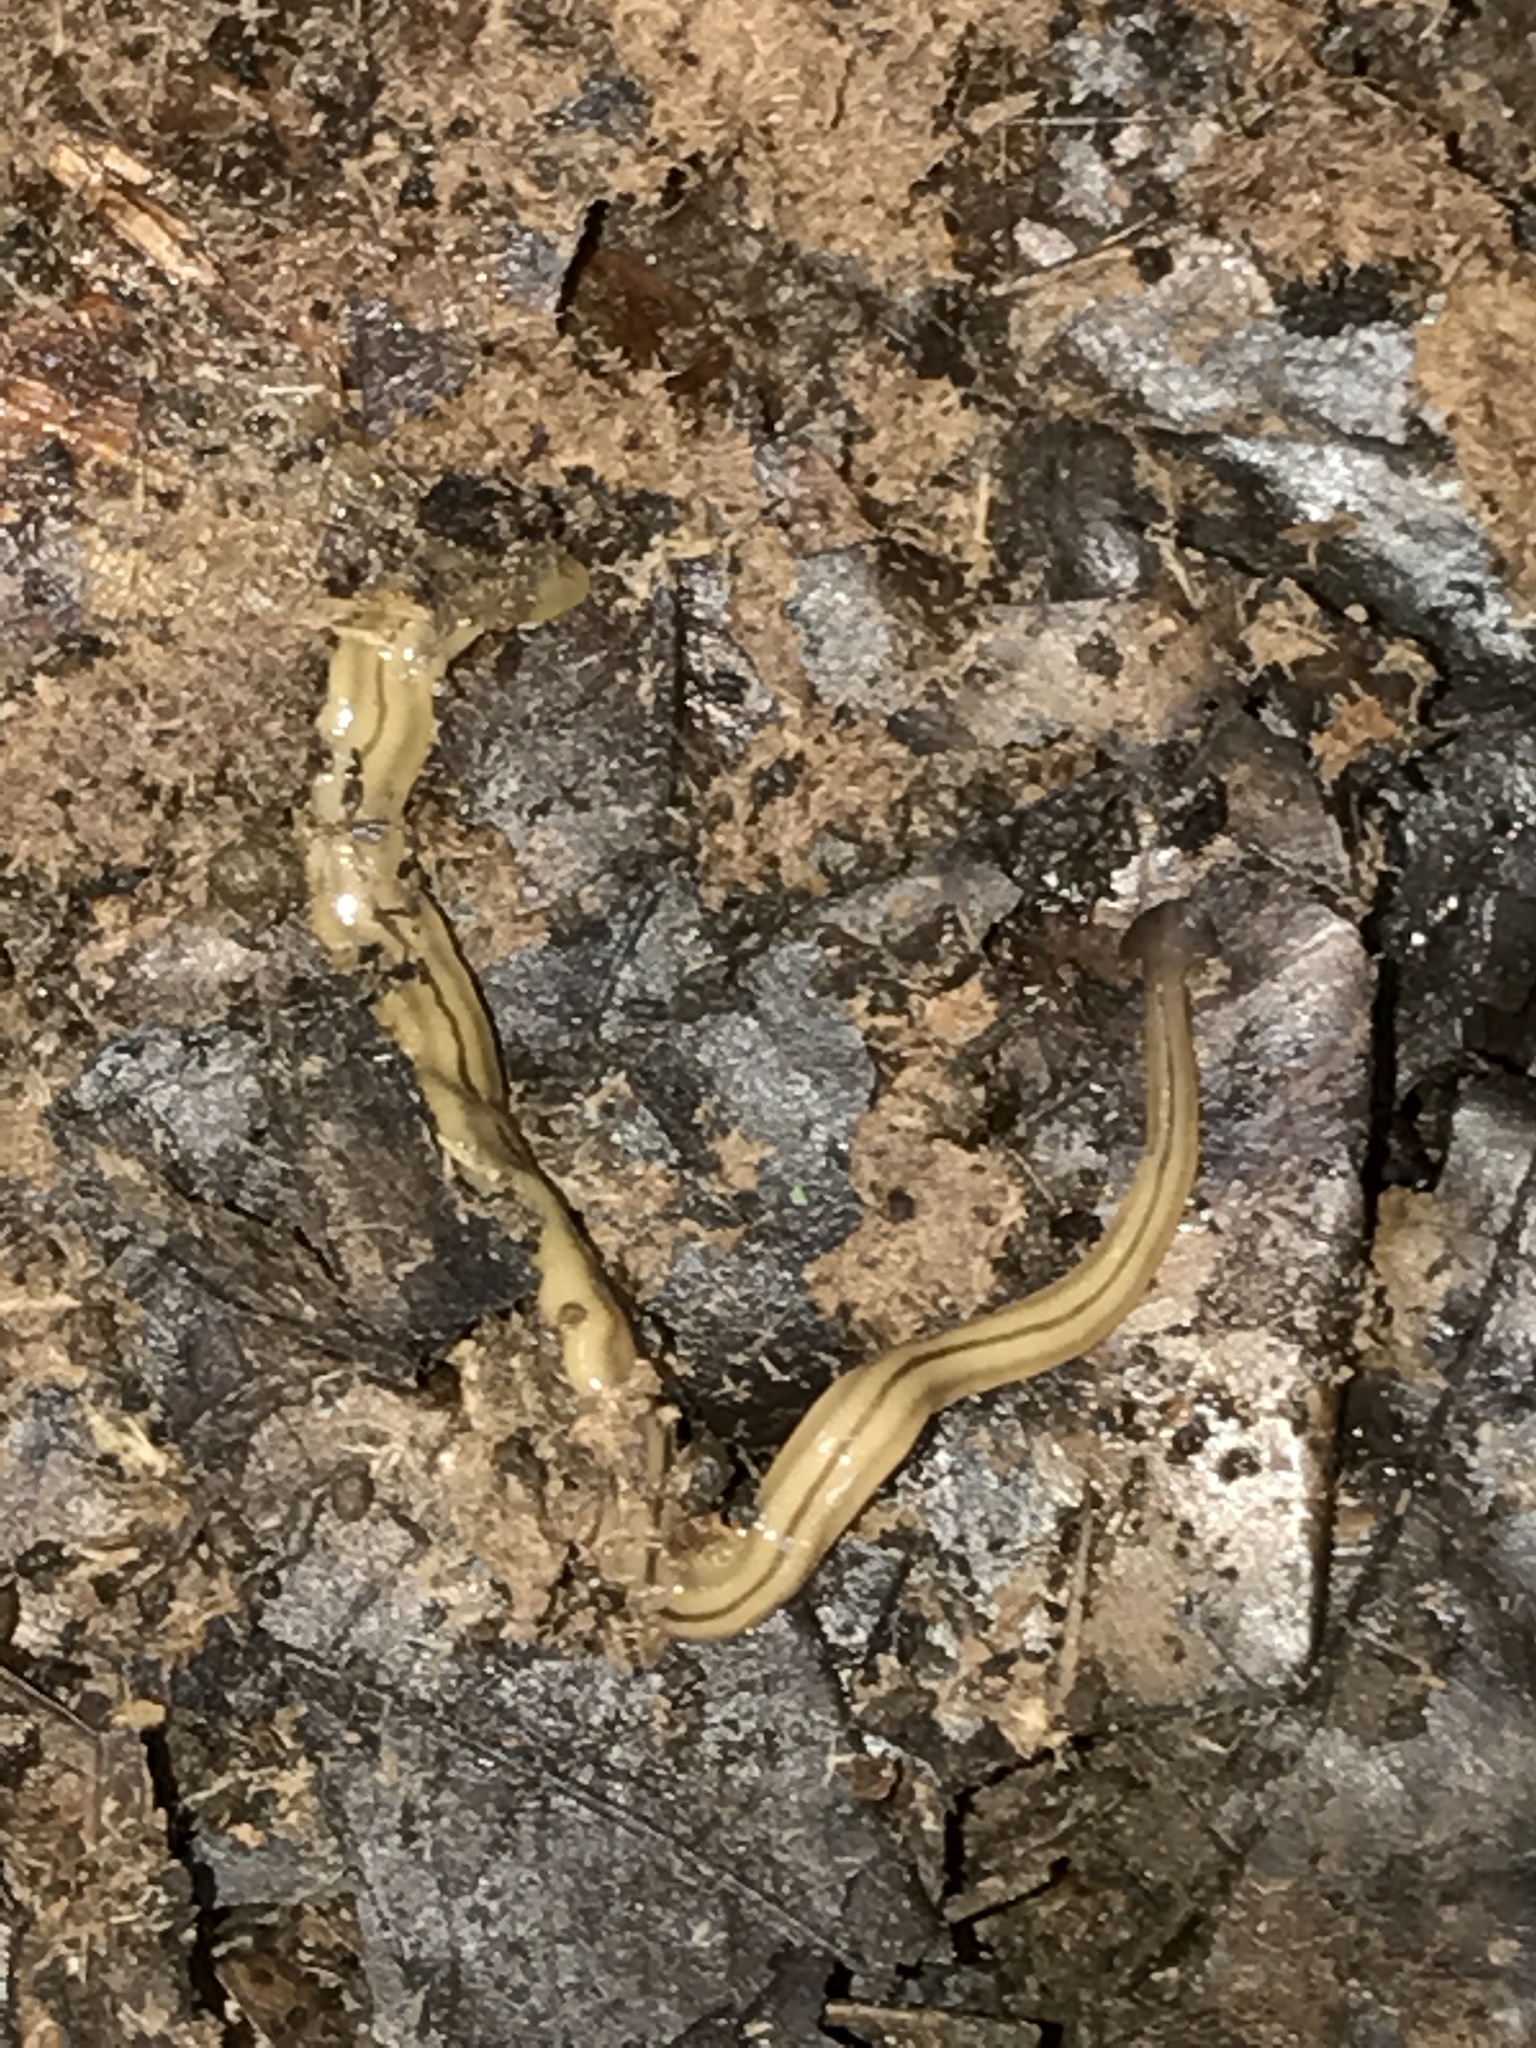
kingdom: Animalia
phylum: Platyhelminthes
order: Tricladida
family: Geoplanidae
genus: Bipalium
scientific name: Bipalium pennsylvanicum
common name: Three-lined land planarian
